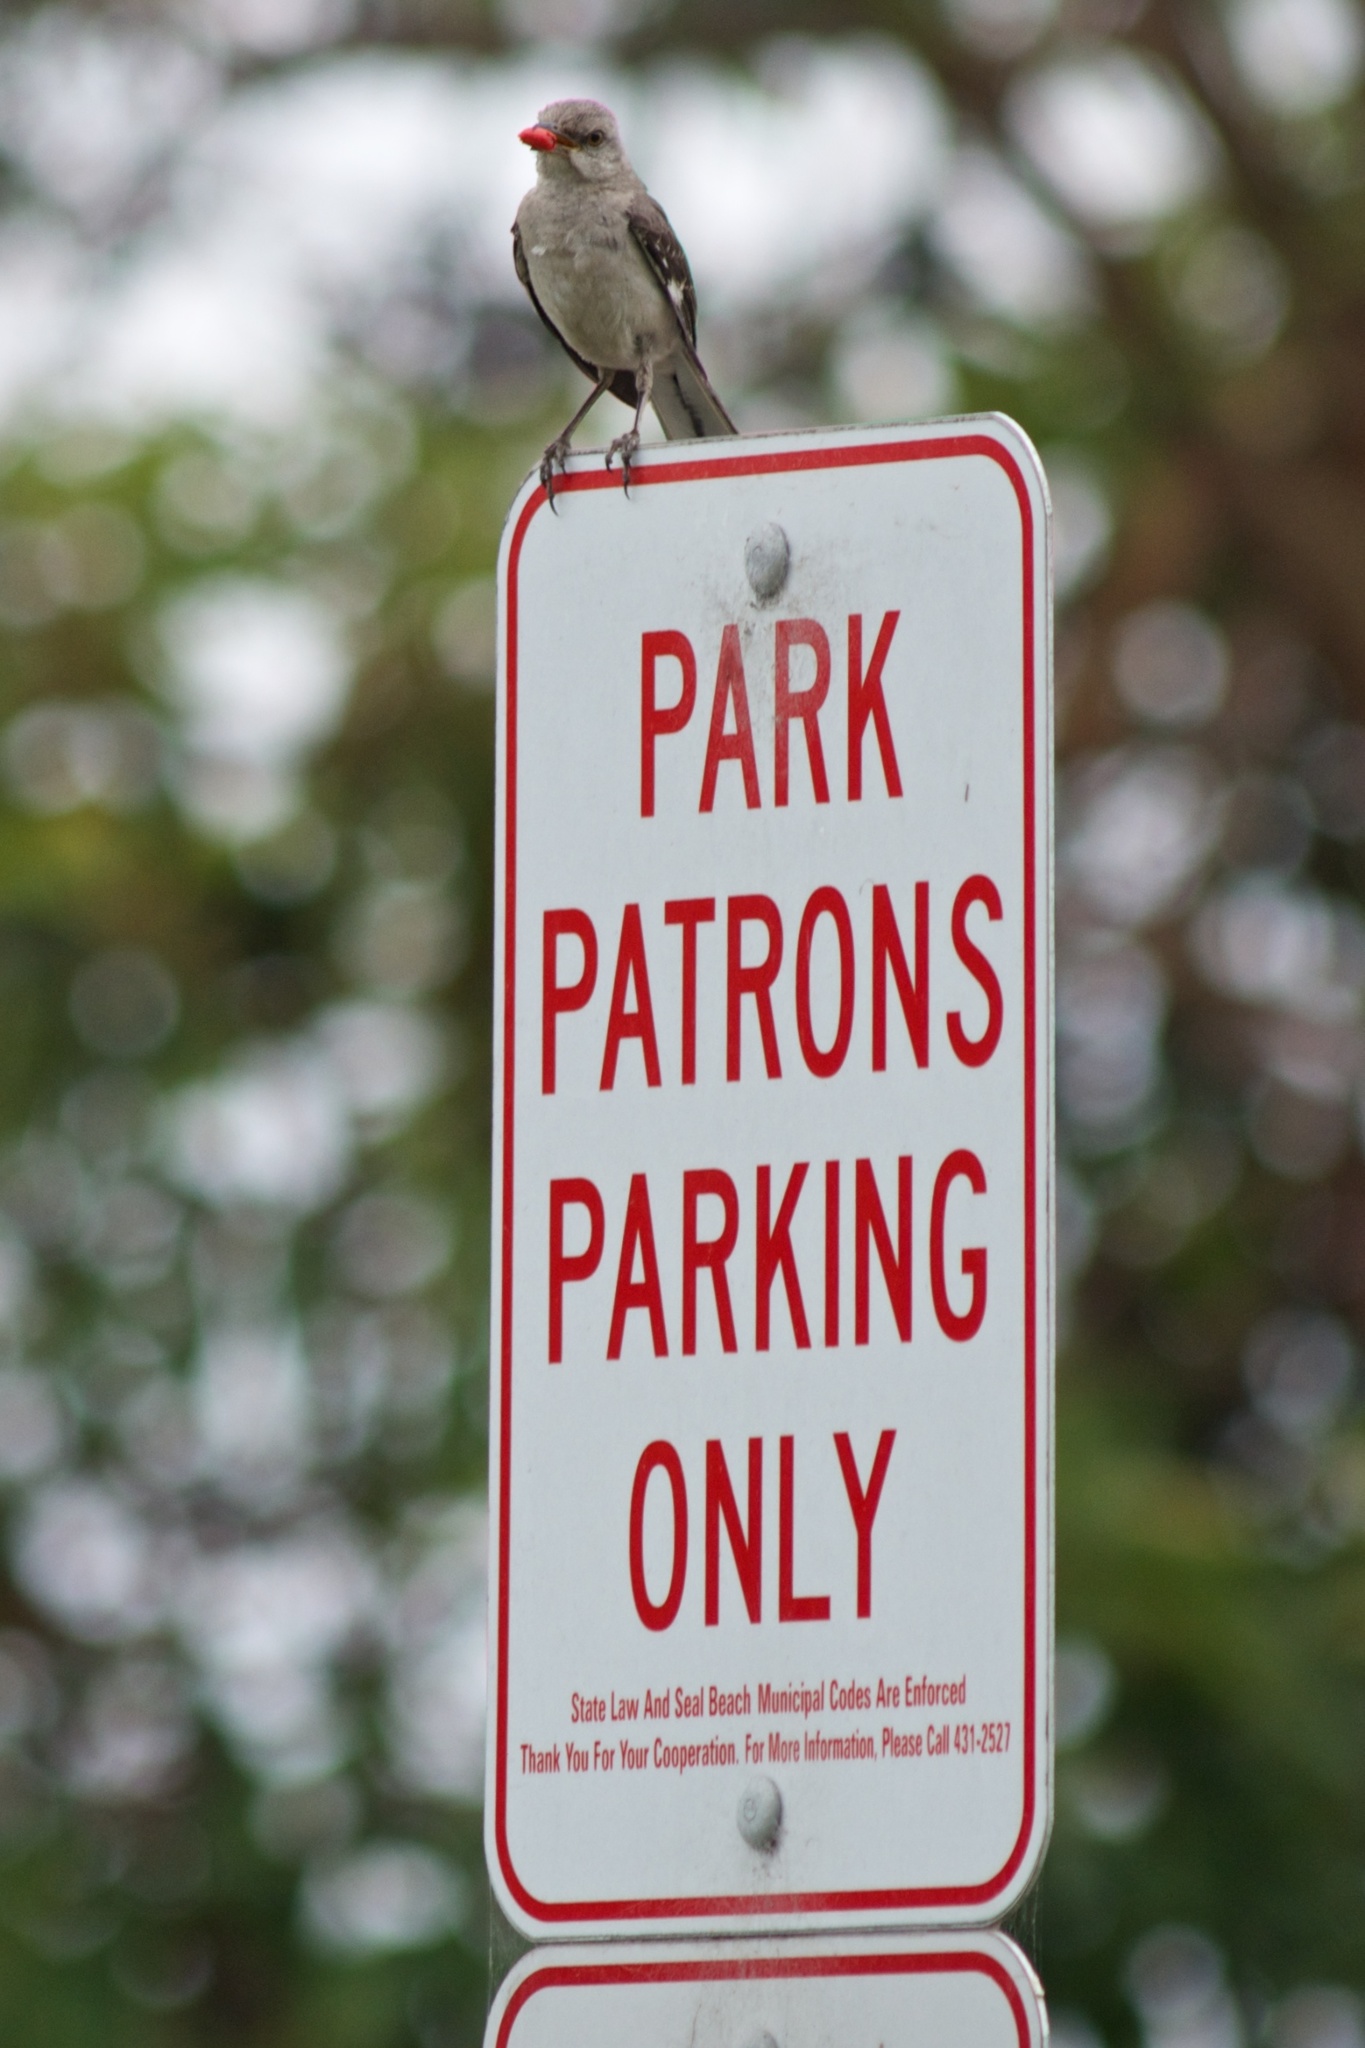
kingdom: Animalia
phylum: Chordata
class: Aves
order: Passeriformes
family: Mimidae
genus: Mimus
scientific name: Mimus polyglottos
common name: Northern mockingbird
